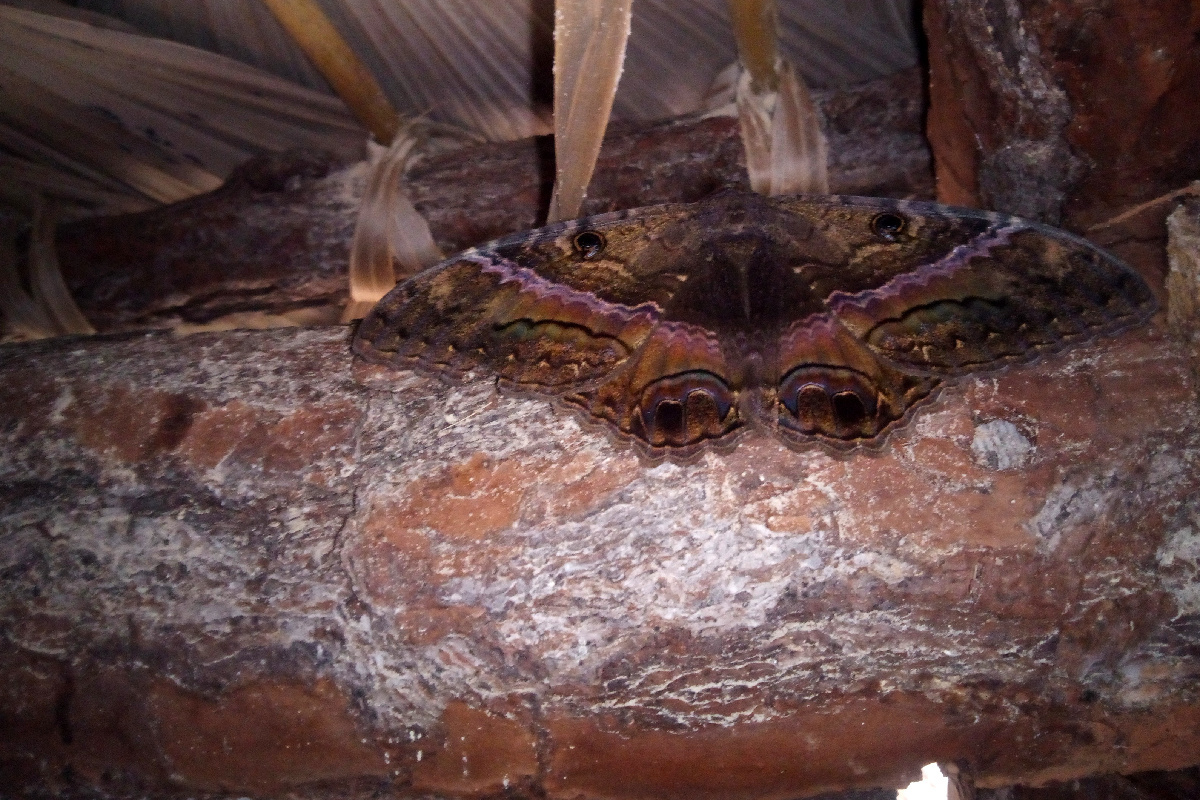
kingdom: Animalia
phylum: Arthropoda
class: Insecta
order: Lepidoptera
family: Erebidae
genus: Ascalapha
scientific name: Ascalapha odorata
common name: Black witch
